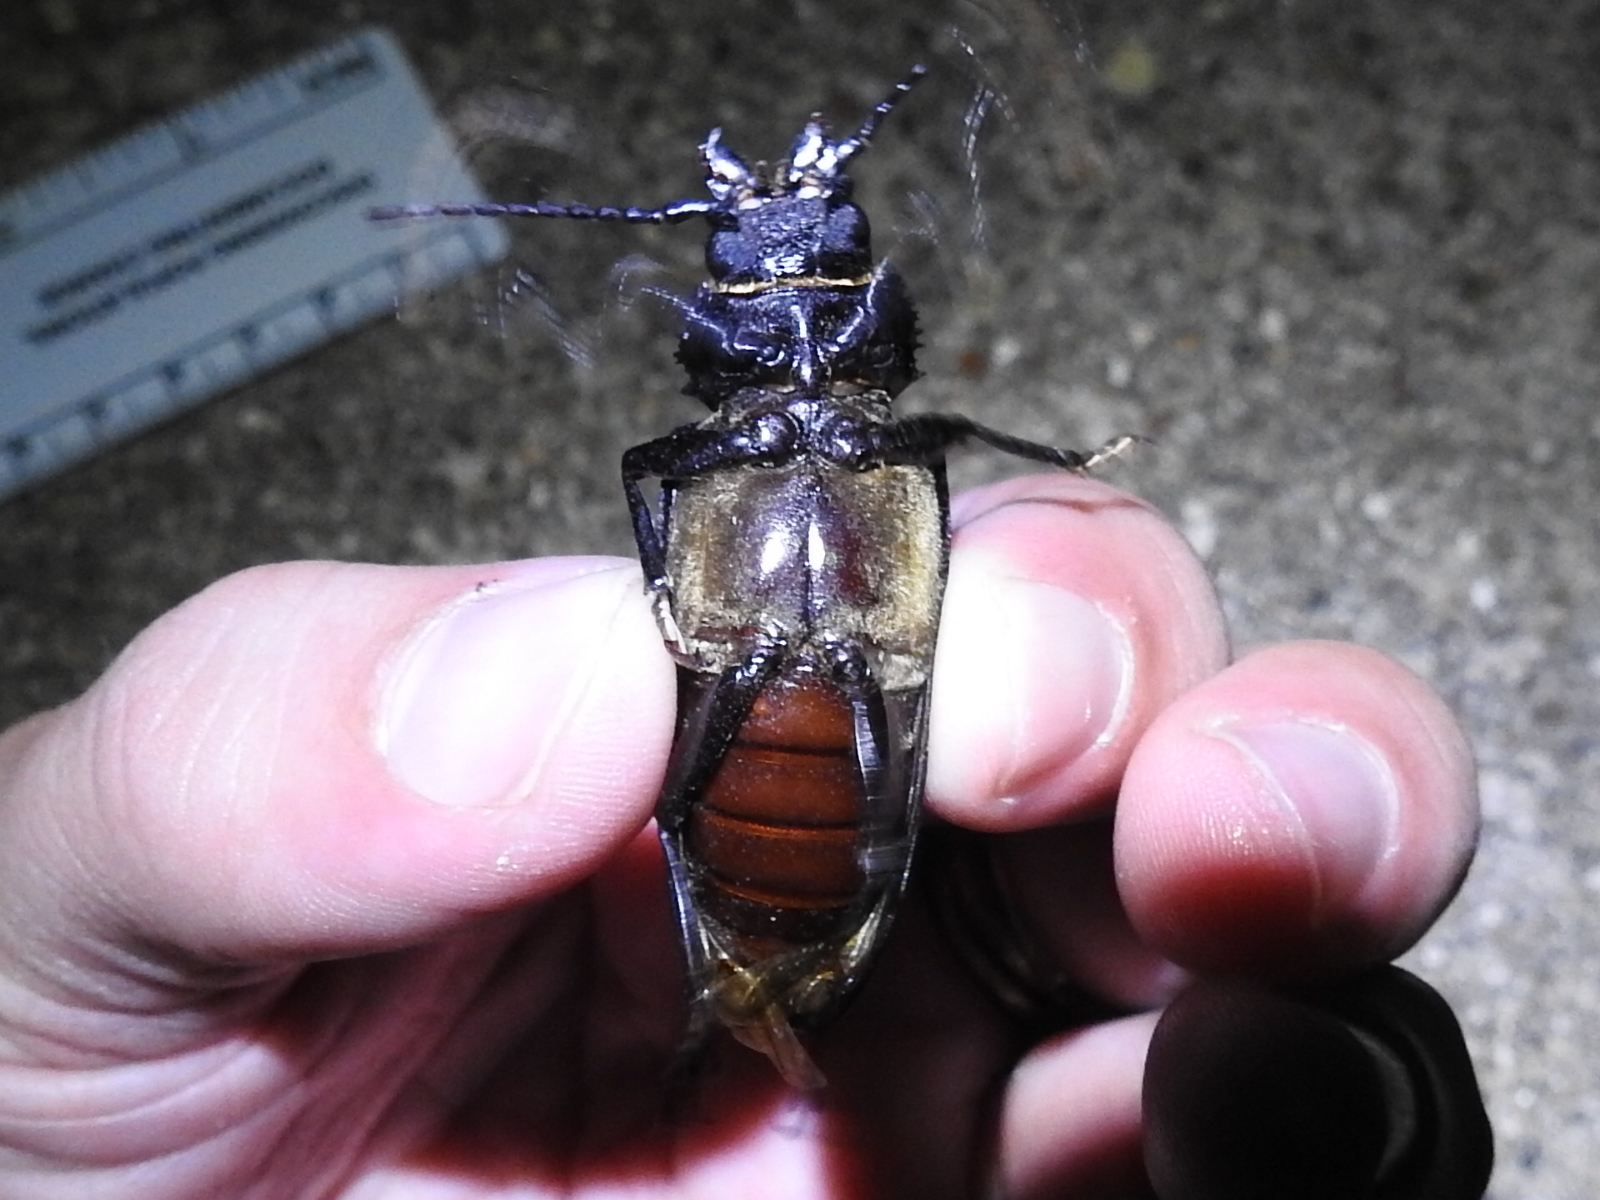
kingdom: Animalia
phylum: Arthropoda
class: Insecta
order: Coleoptera
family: Cerambycidae
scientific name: Cerambycidae
